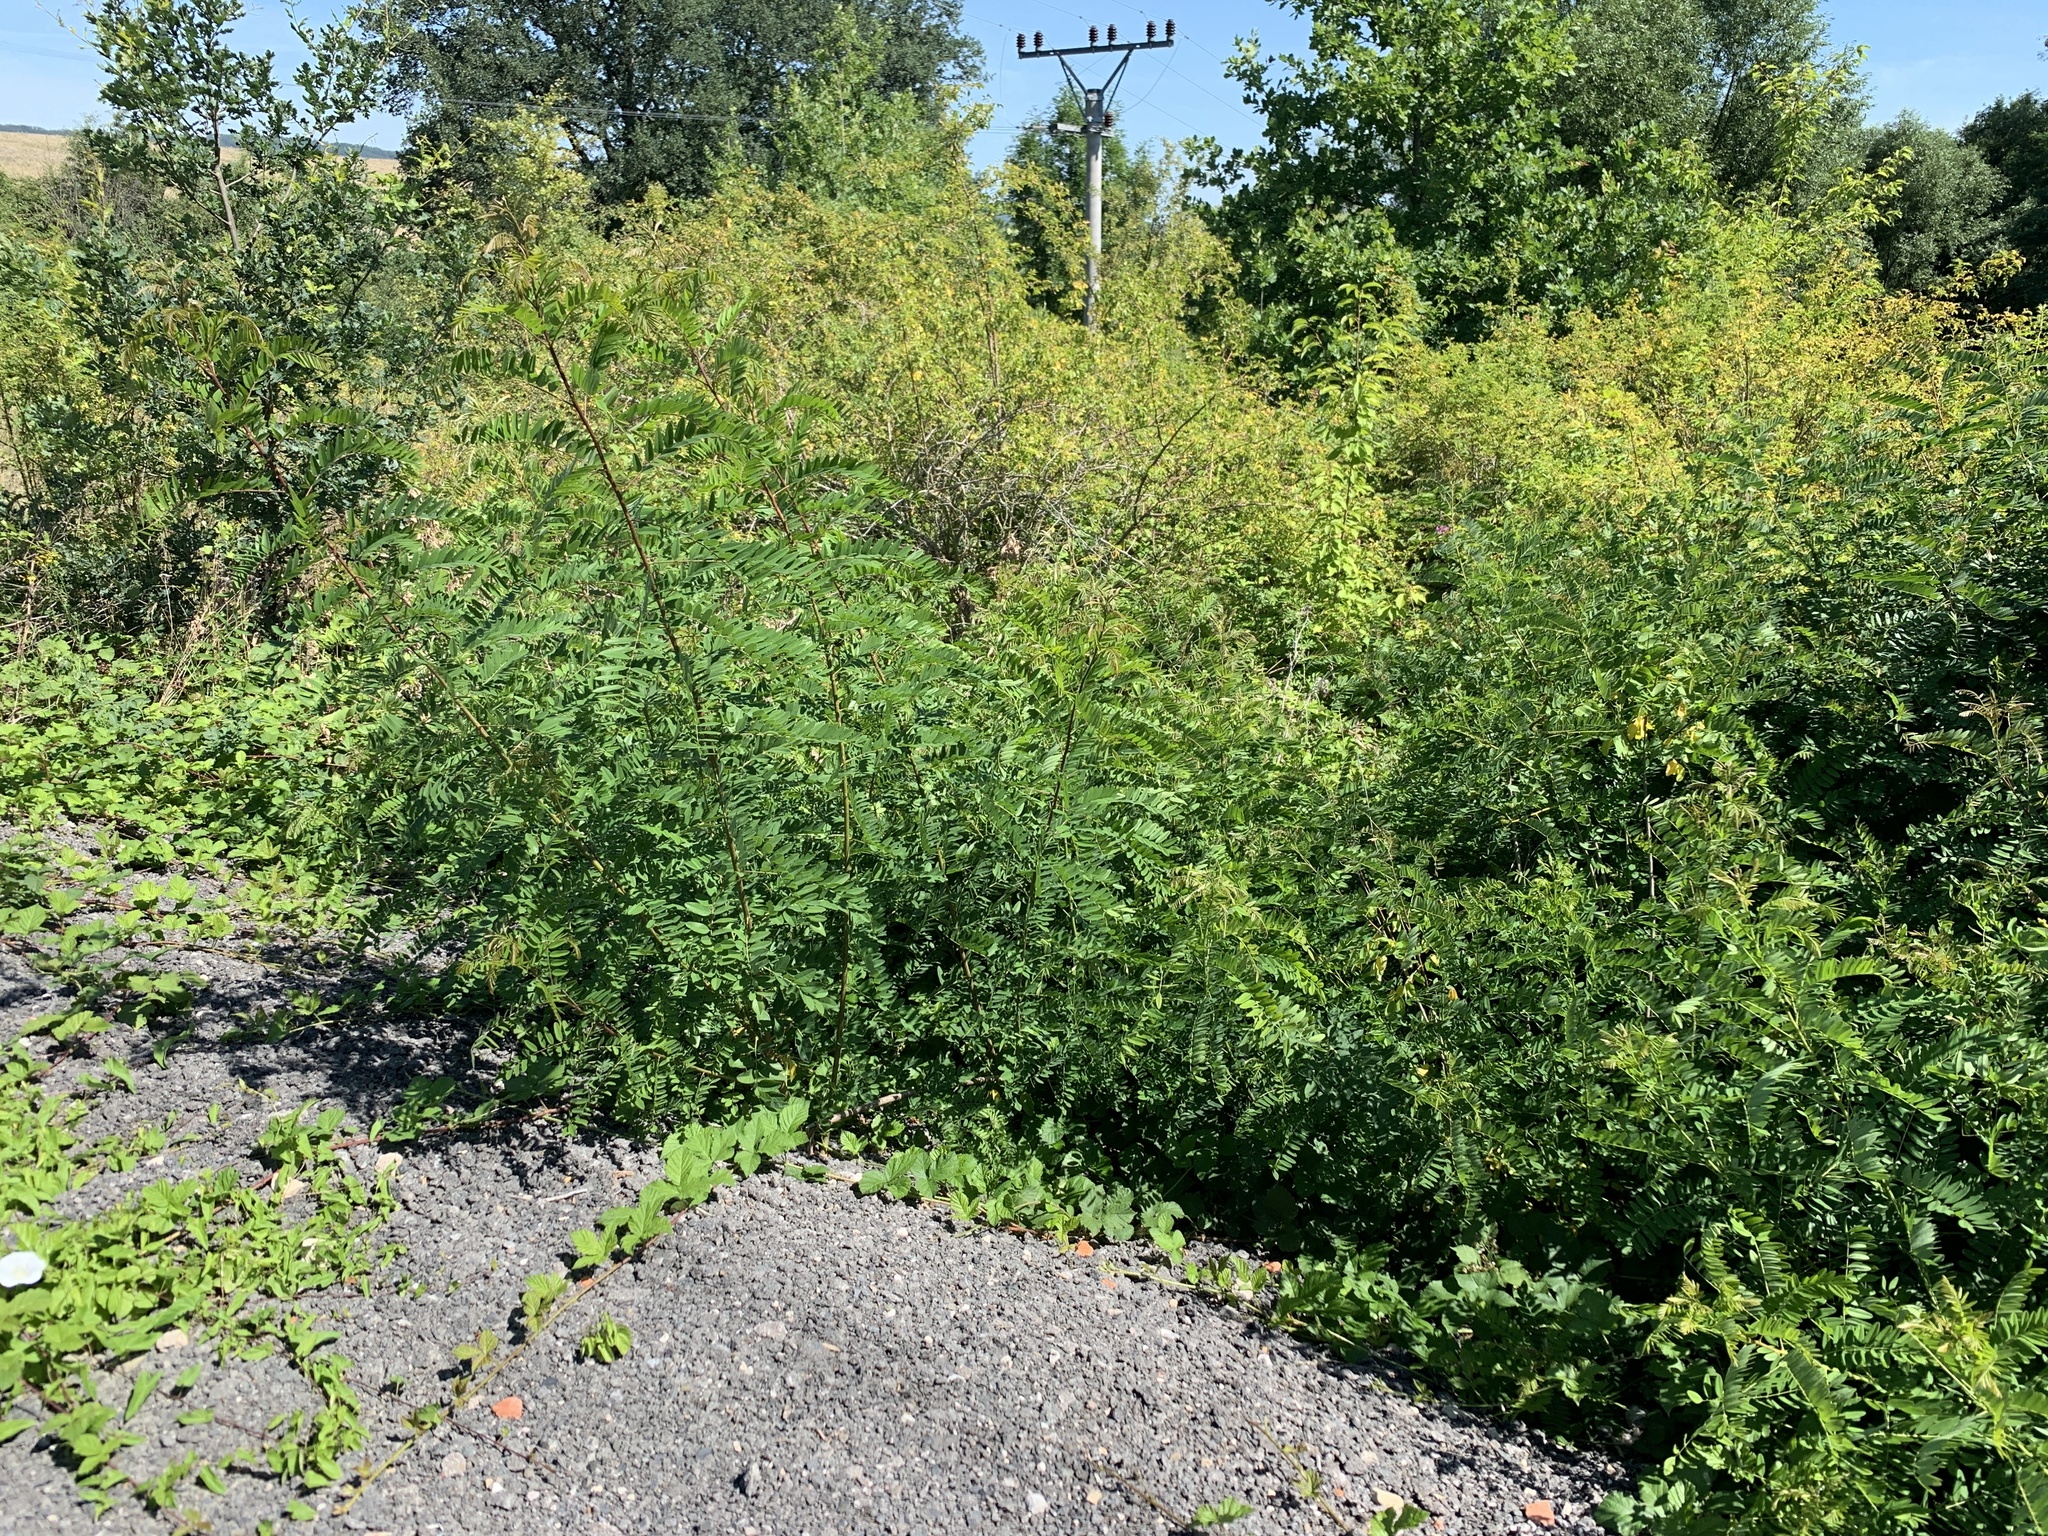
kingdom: Plantae
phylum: Tracheophyta
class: Magnoliopsida
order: Fabales
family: Fabaceae
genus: Robinia
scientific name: Robinia pseudoacacia
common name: Black locust
